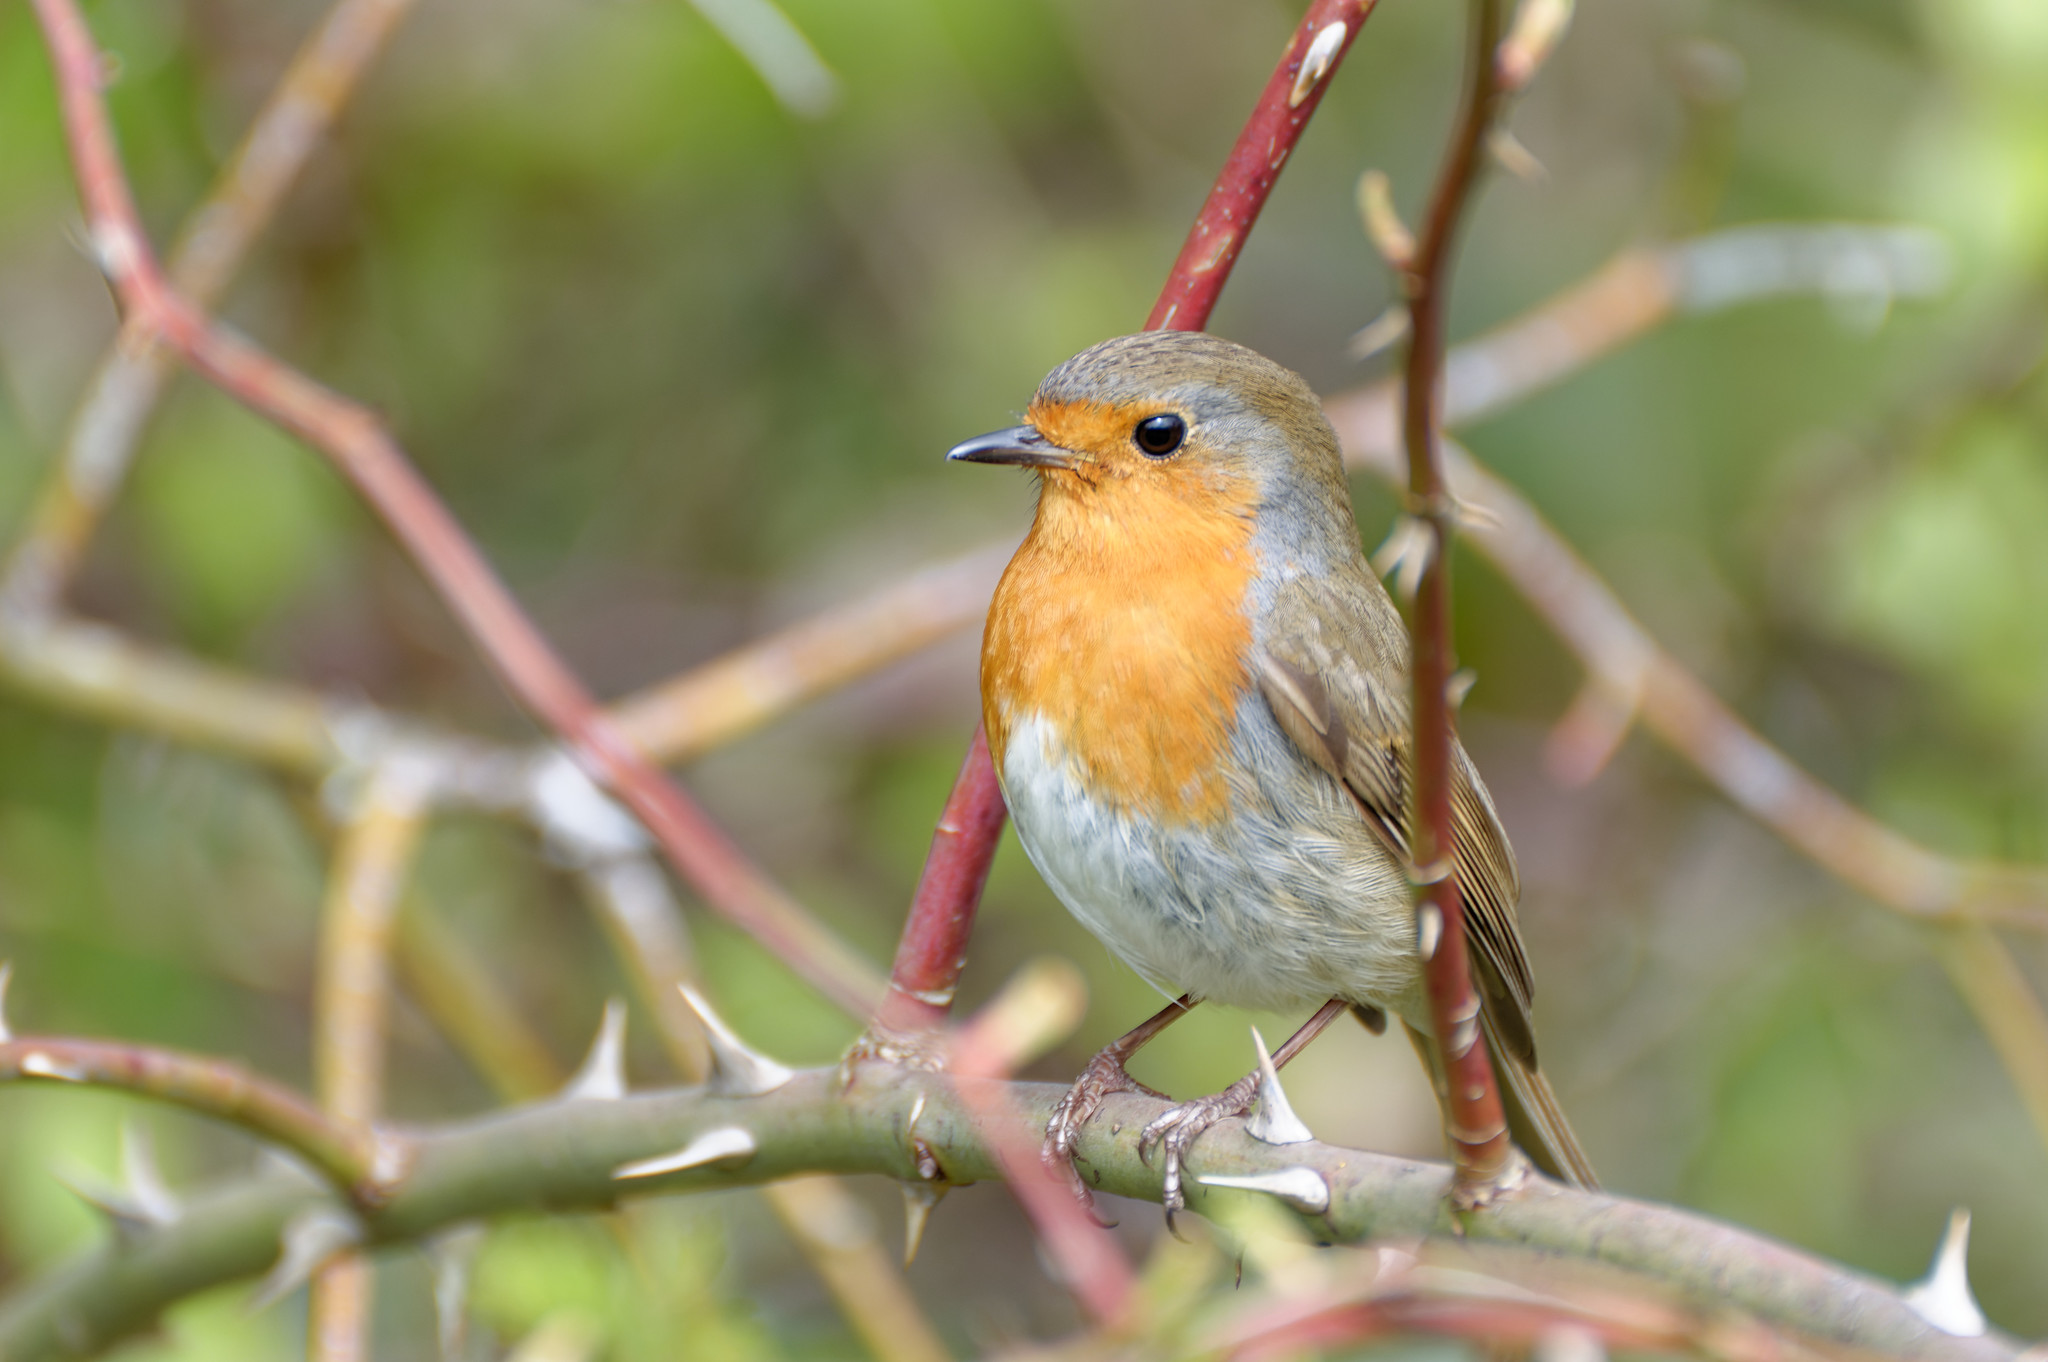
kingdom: Animalia
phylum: Chordata
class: Aves
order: Passeriformes
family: Muscicapidae
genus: Erithacus
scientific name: Erithacus rubecula
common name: European robin
